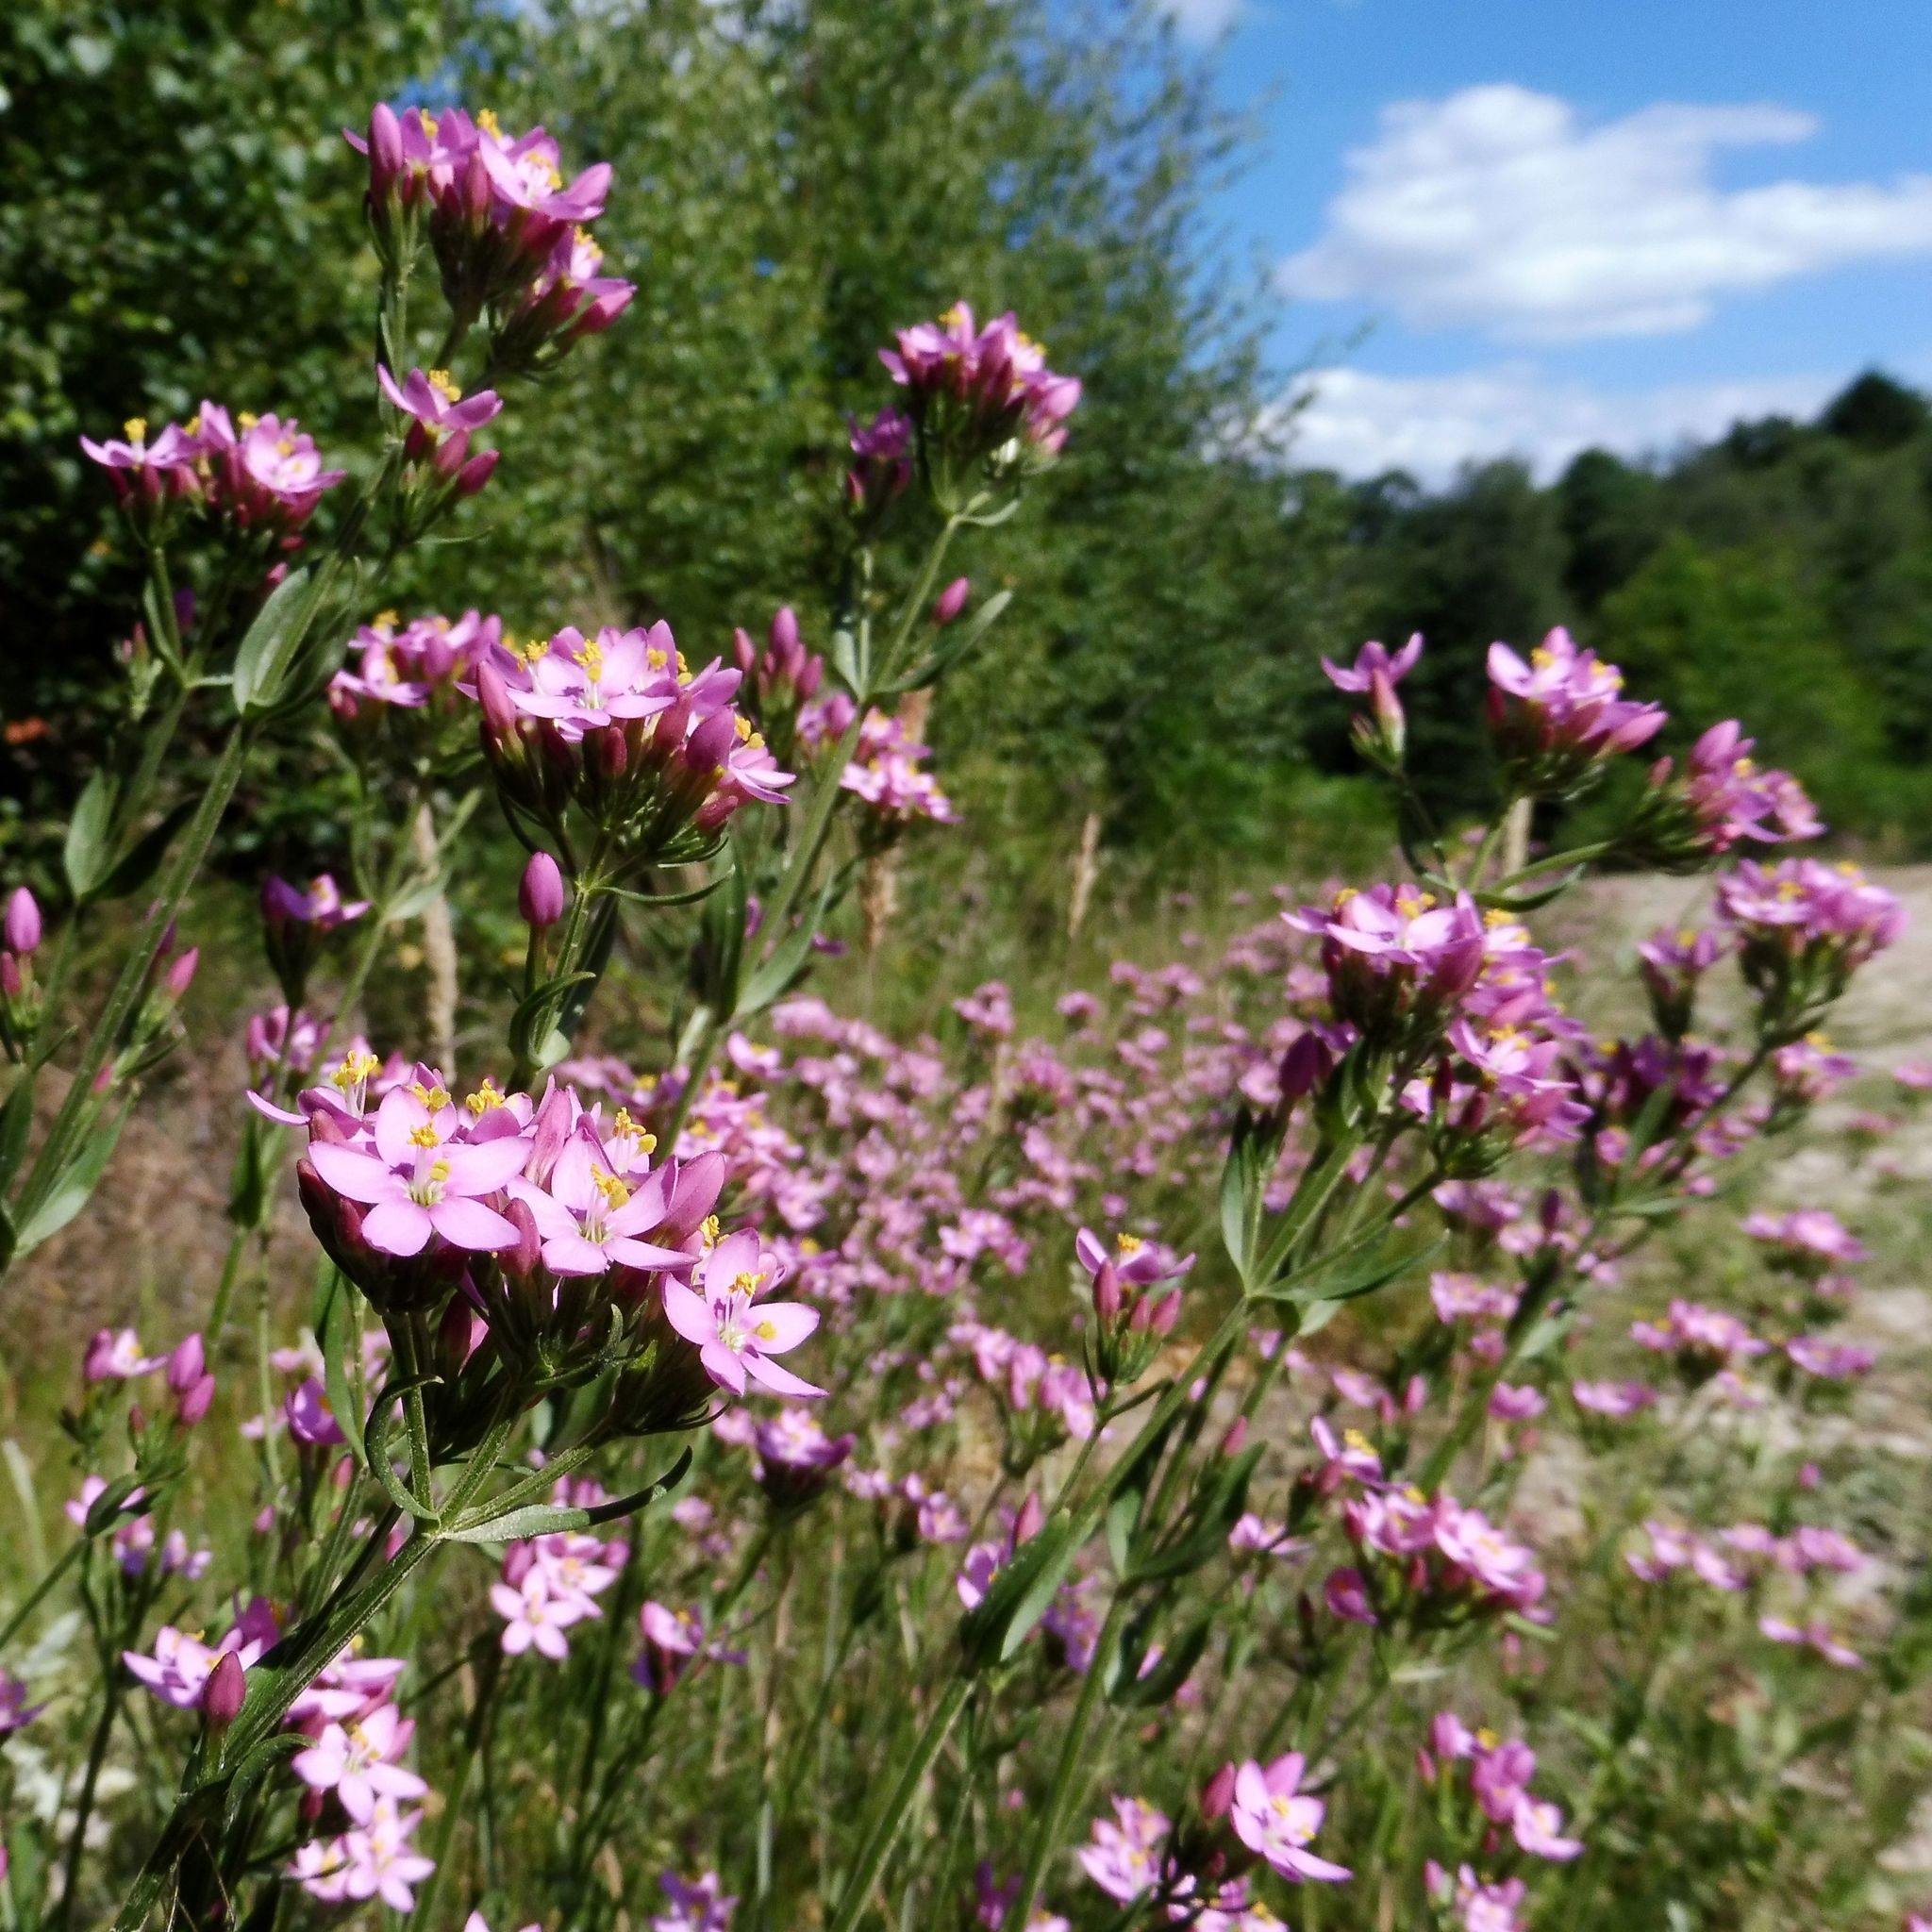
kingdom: Plantae
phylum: Tracheophyta
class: Magnoliopsida
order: Gentianales
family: Gentianaceae
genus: Centaurium
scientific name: Centaurium erythraea
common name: Common centaury
